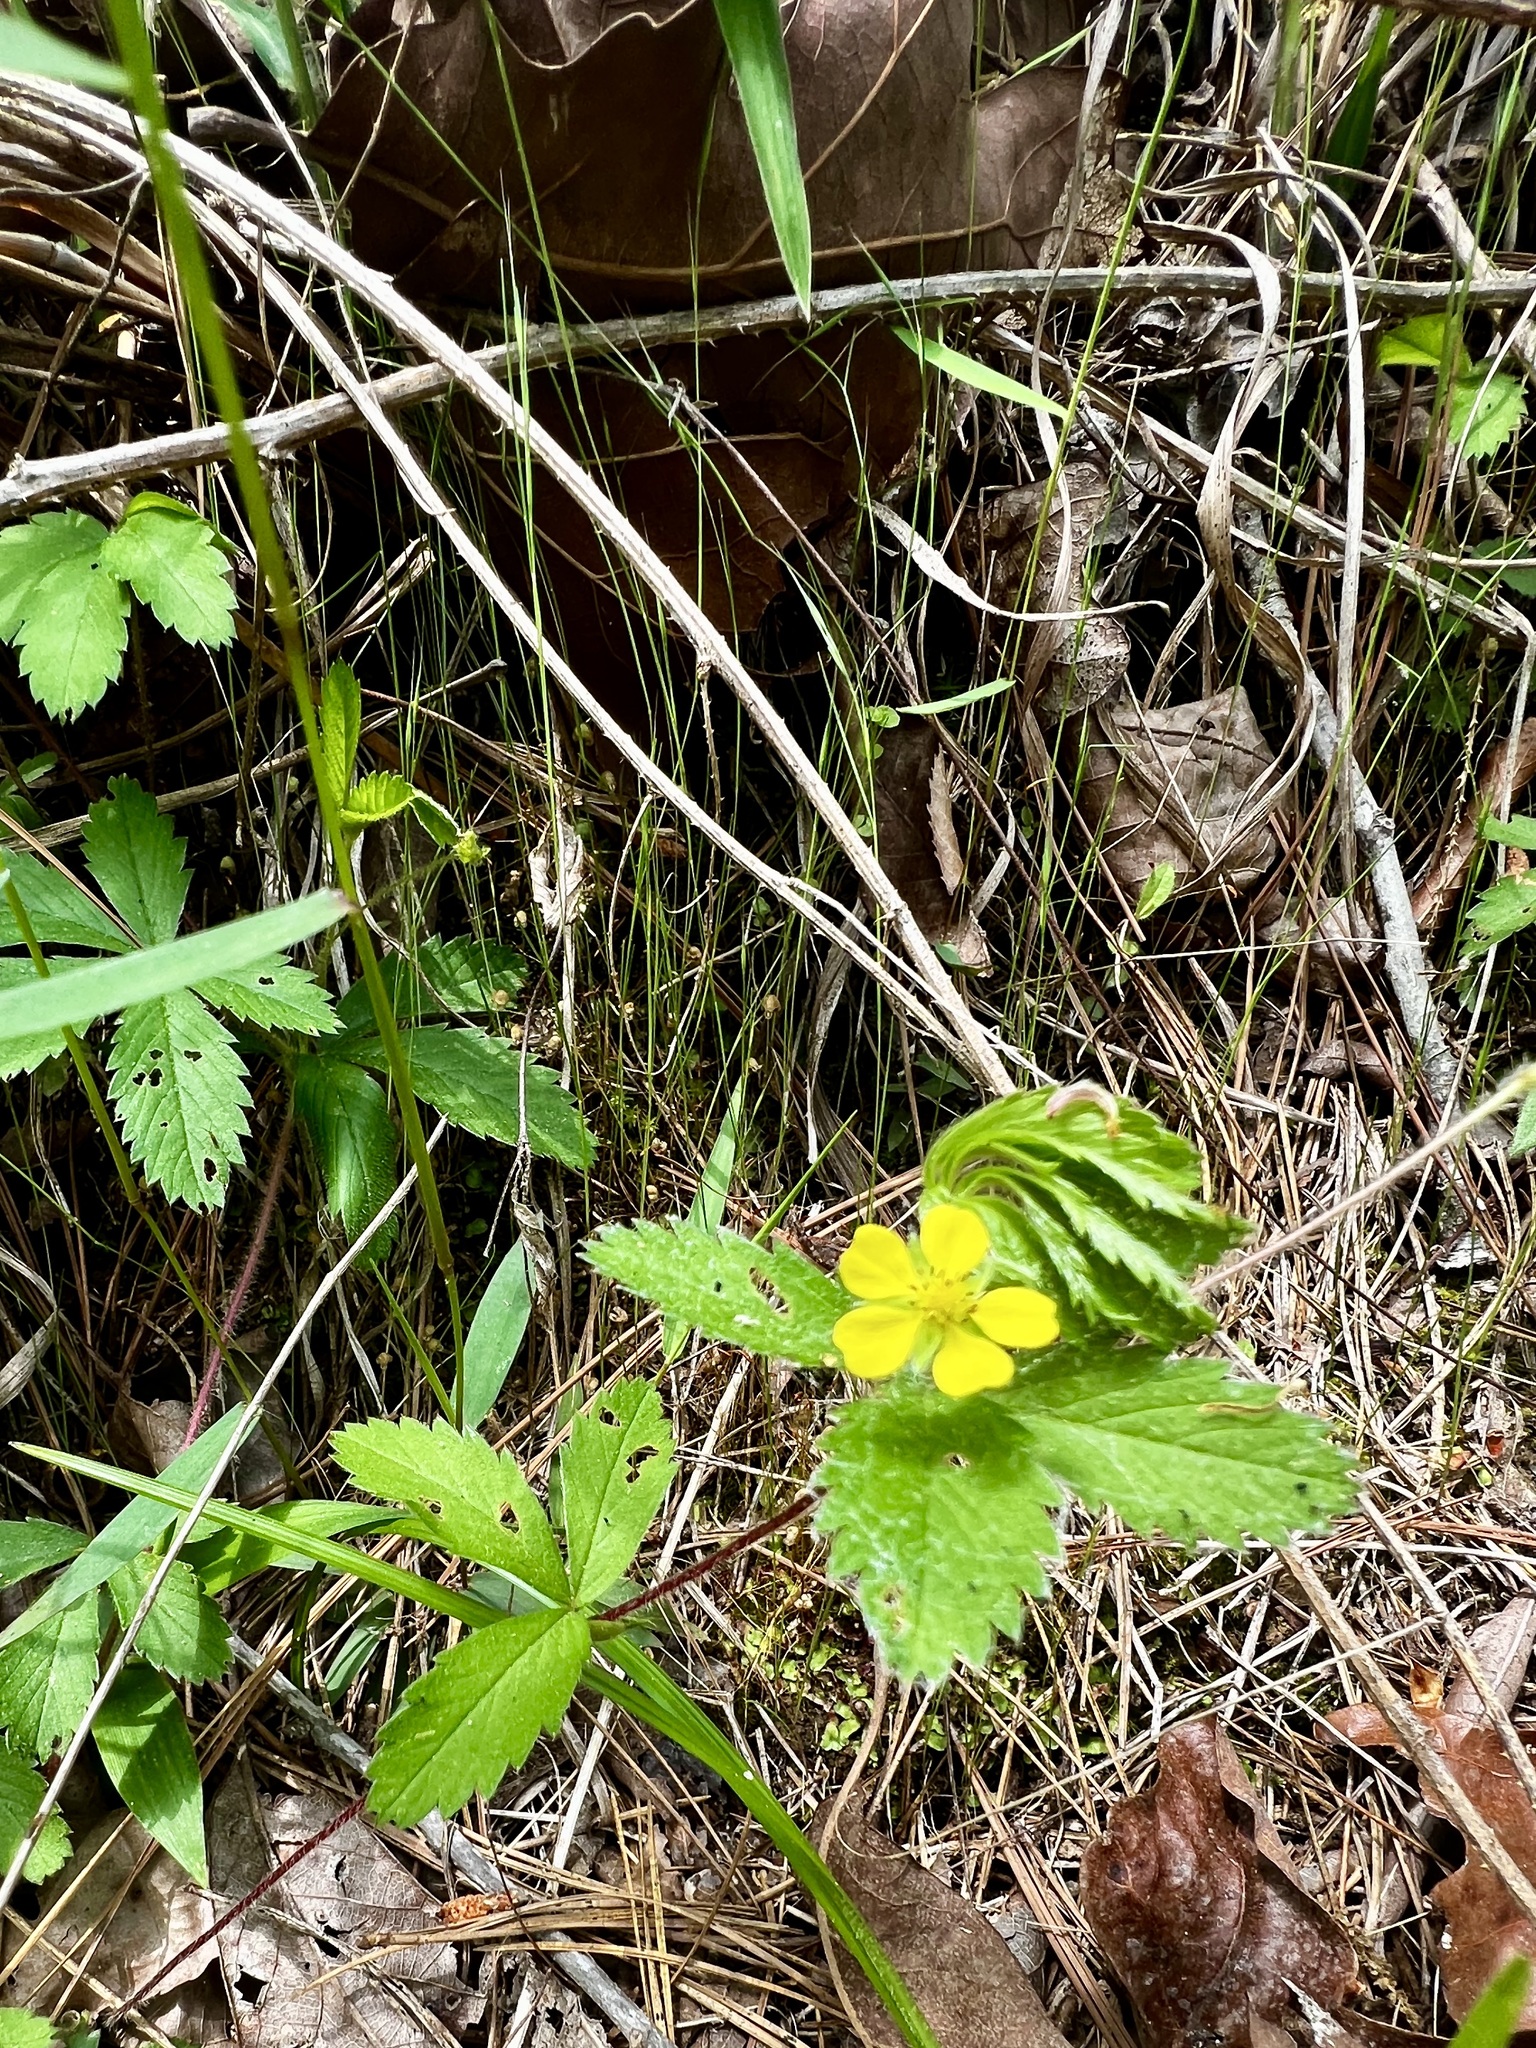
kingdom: Plantae
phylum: Tracheophyta
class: Magnoliopsida
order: Rosales
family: Rosaceae
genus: Potentilla
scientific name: Potentilla simplex
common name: Old field cinquefoil
